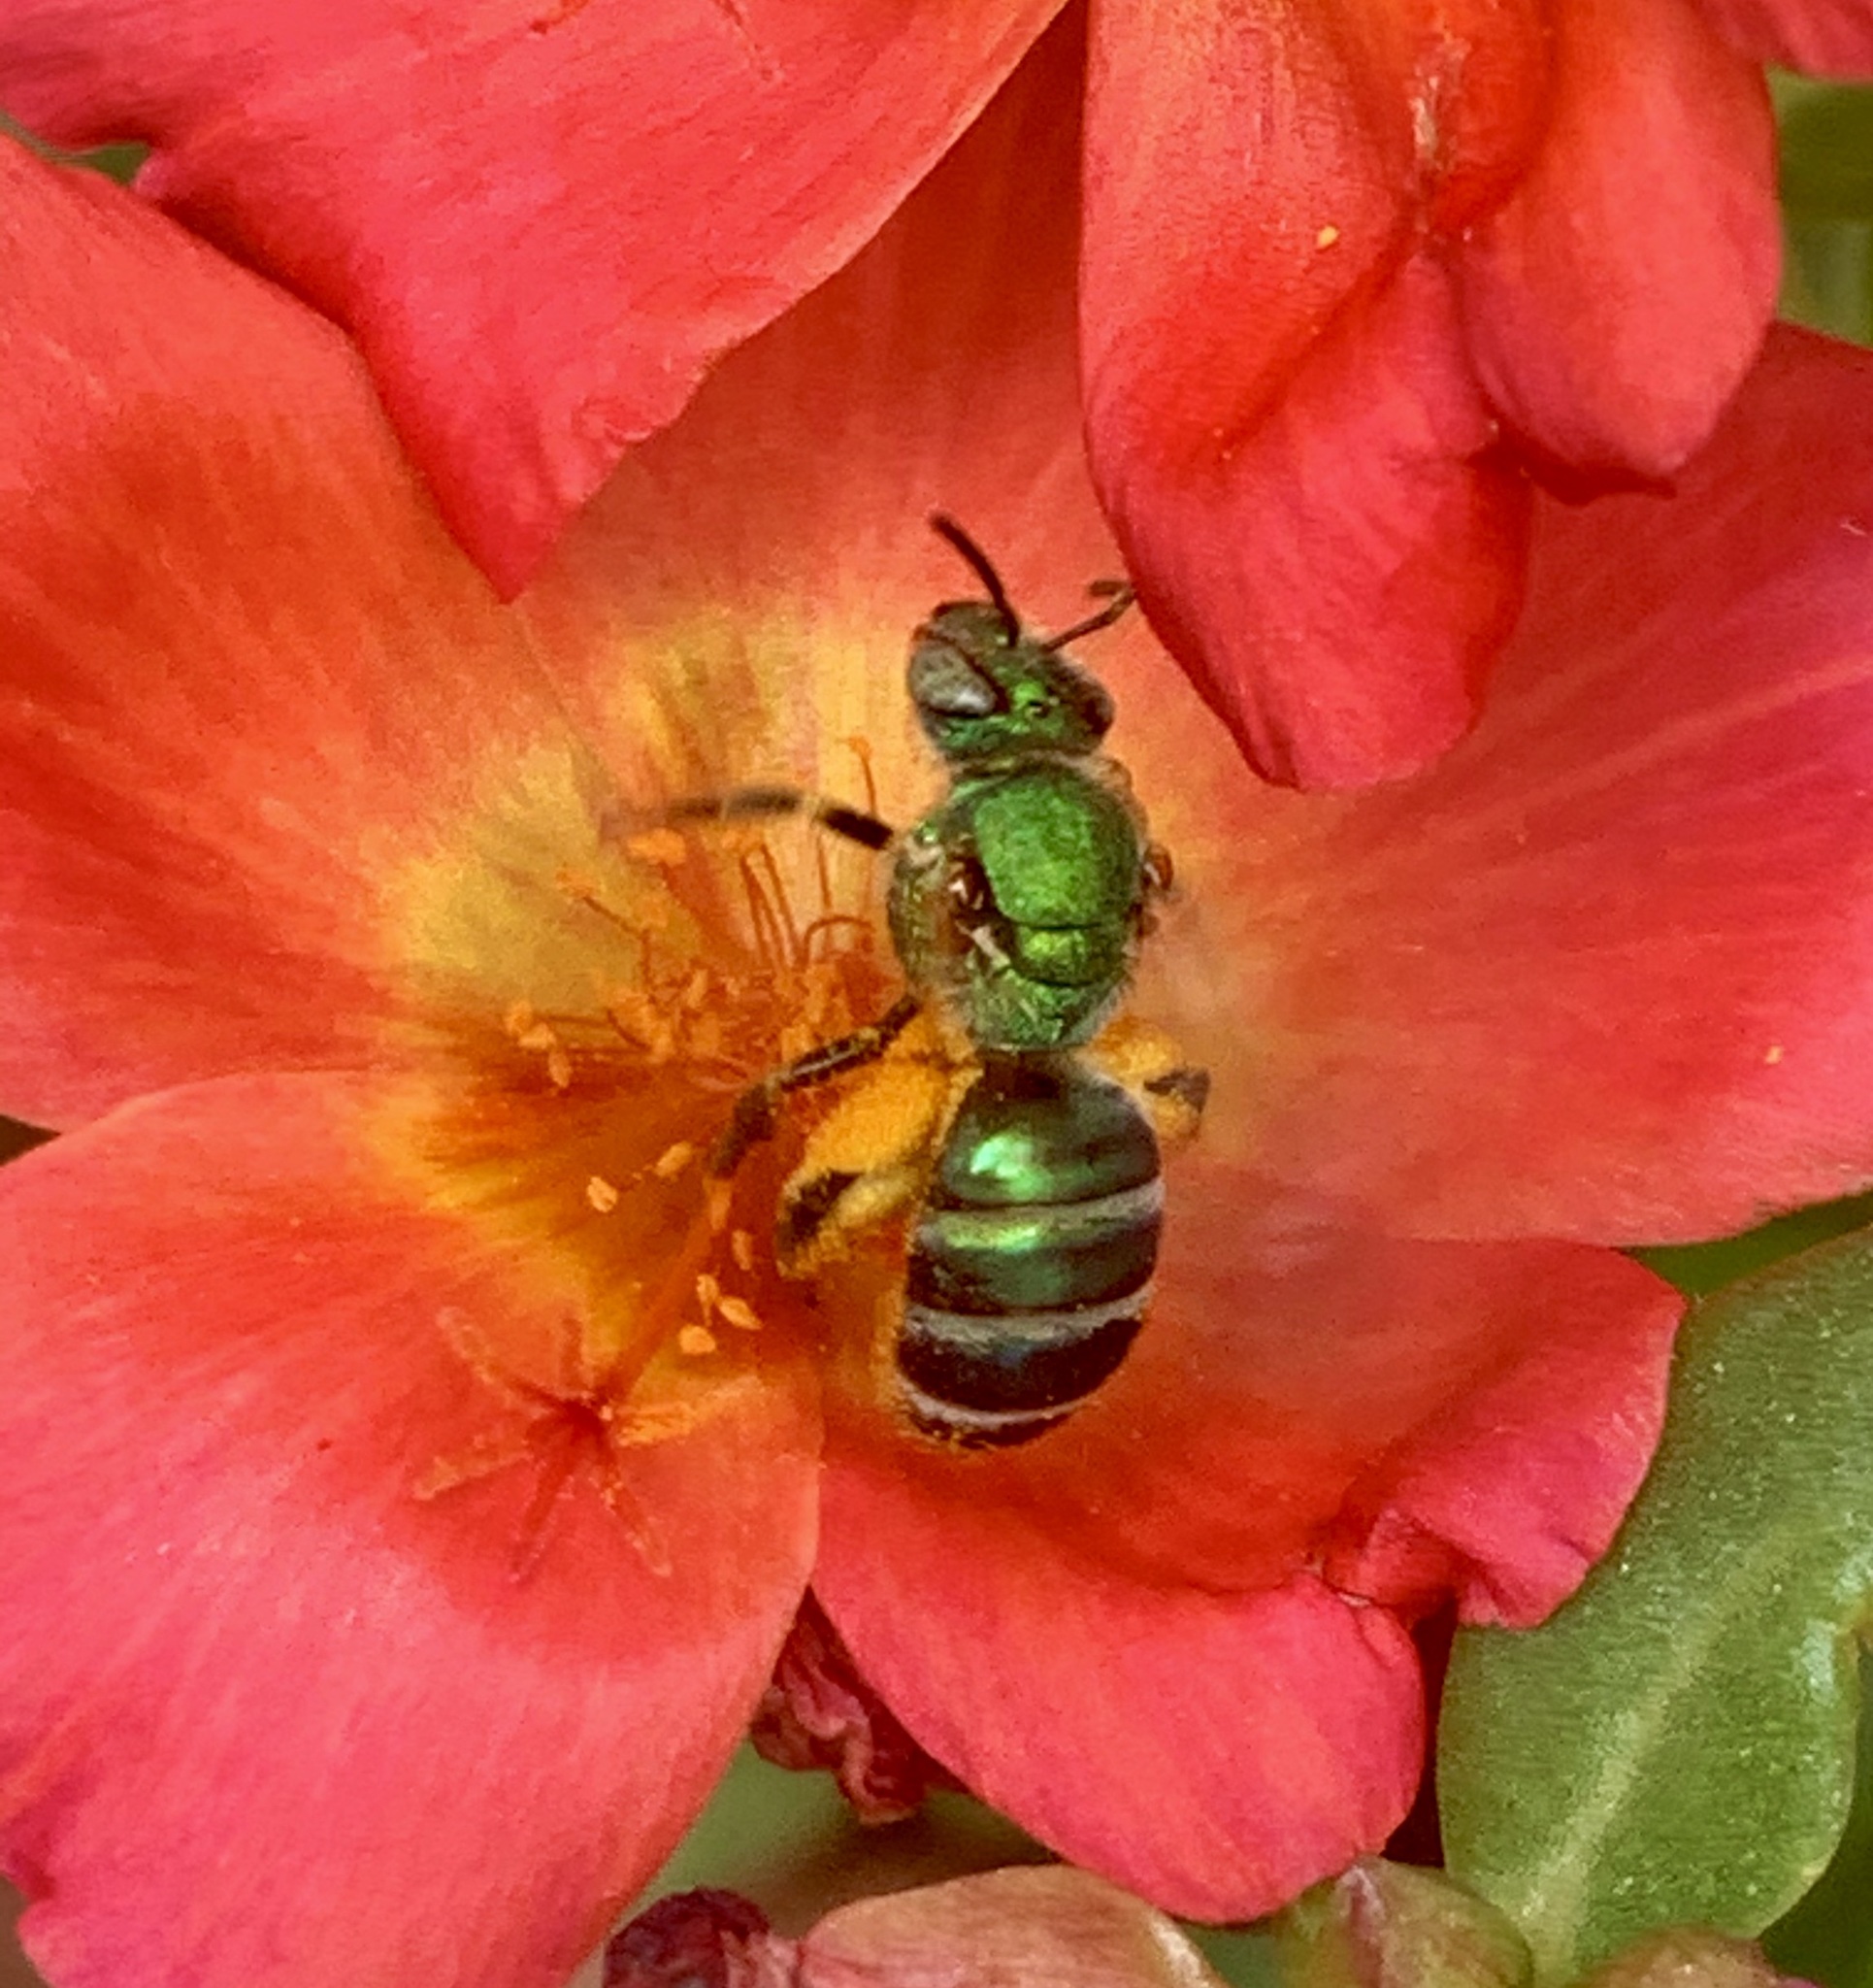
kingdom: Animalia
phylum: Arthropoda
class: Insecta
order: Hymenoptera
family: Halictidae
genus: Agapostemon
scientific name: Agapostemon splendens
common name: Brown-winged striped sweat bee
